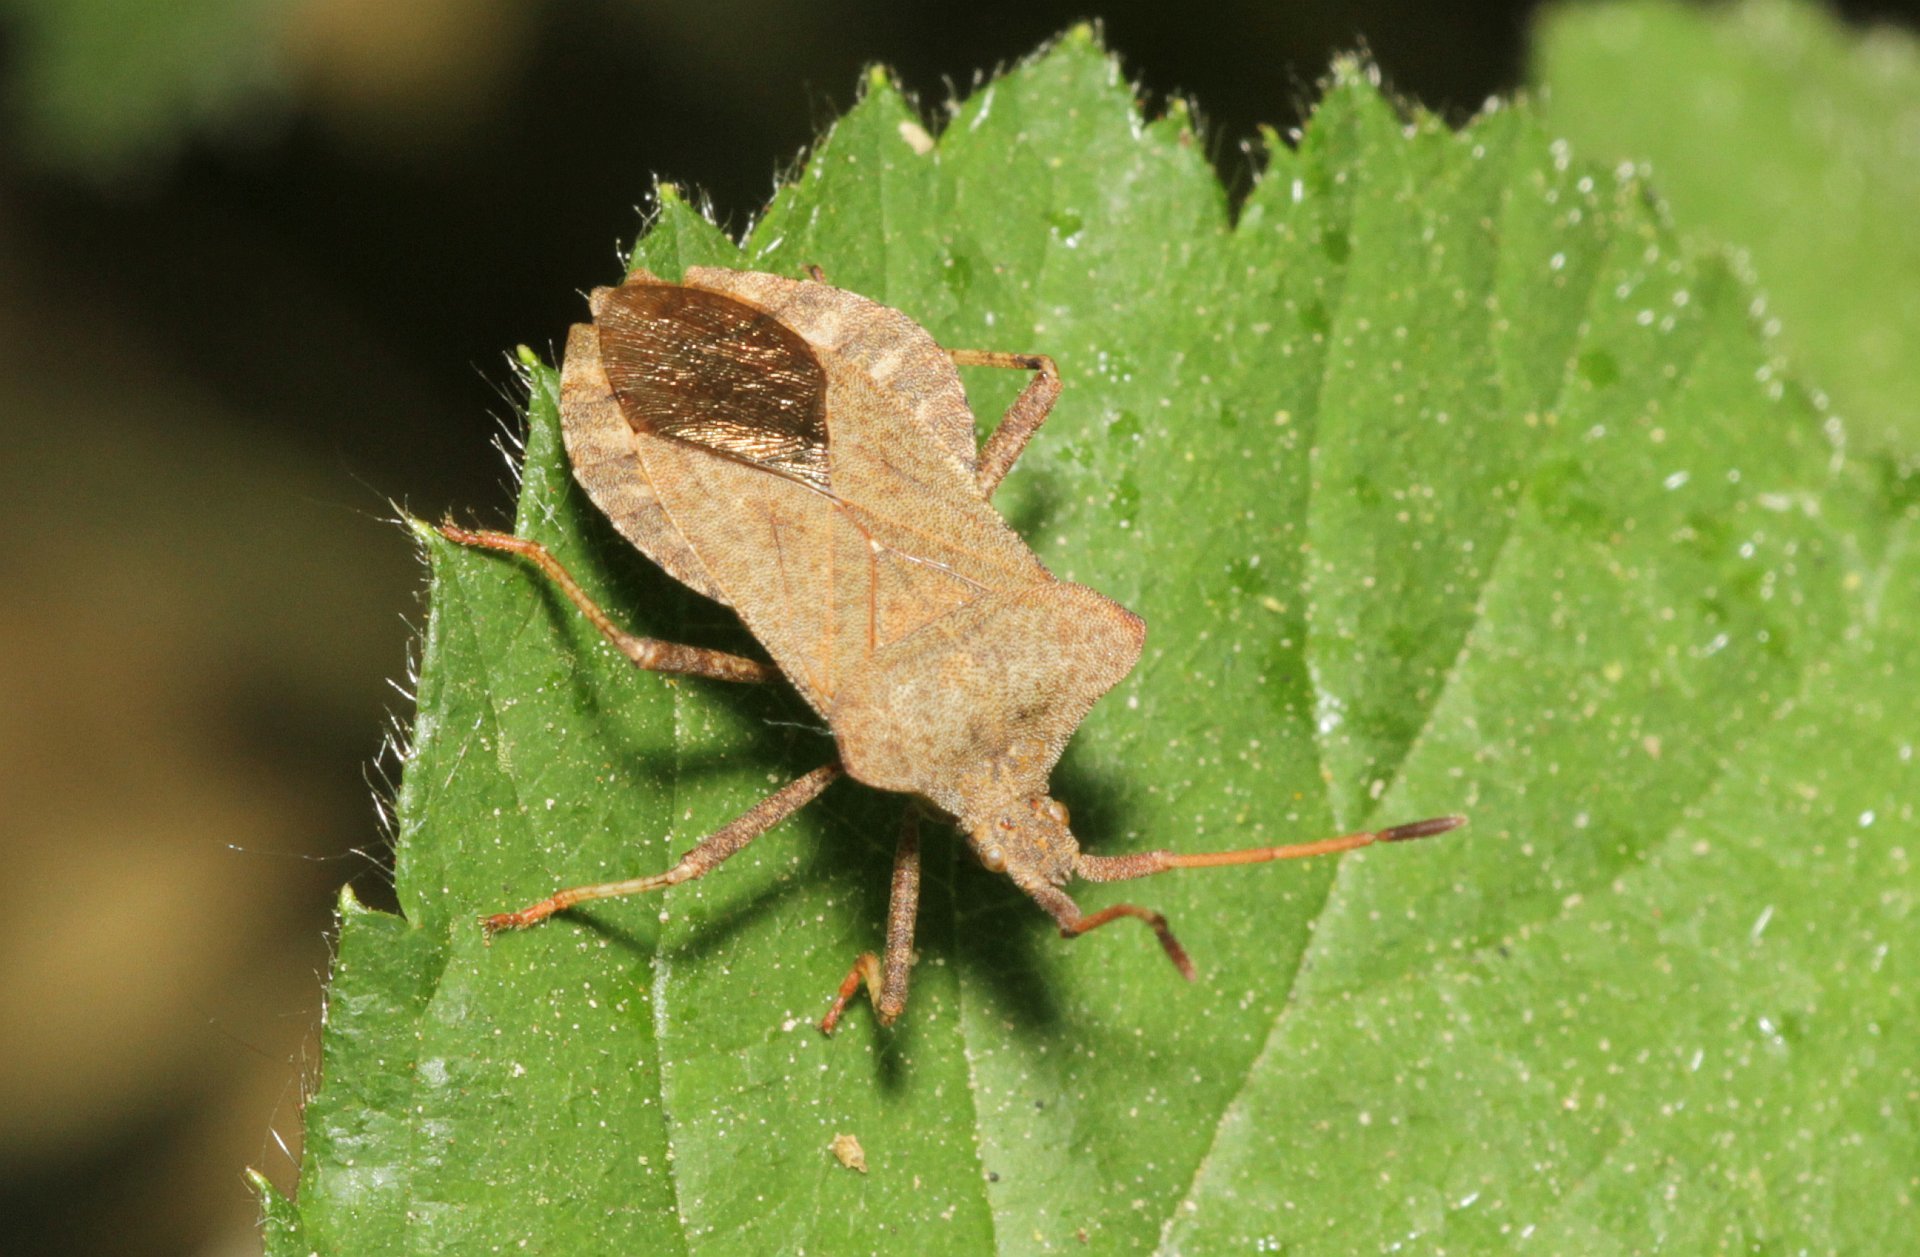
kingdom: Animalia
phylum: Arthropoda
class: Insecta
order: Hemiptera
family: Coreidae
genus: Coreus
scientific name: Coreus marginatus
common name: Dock bug
